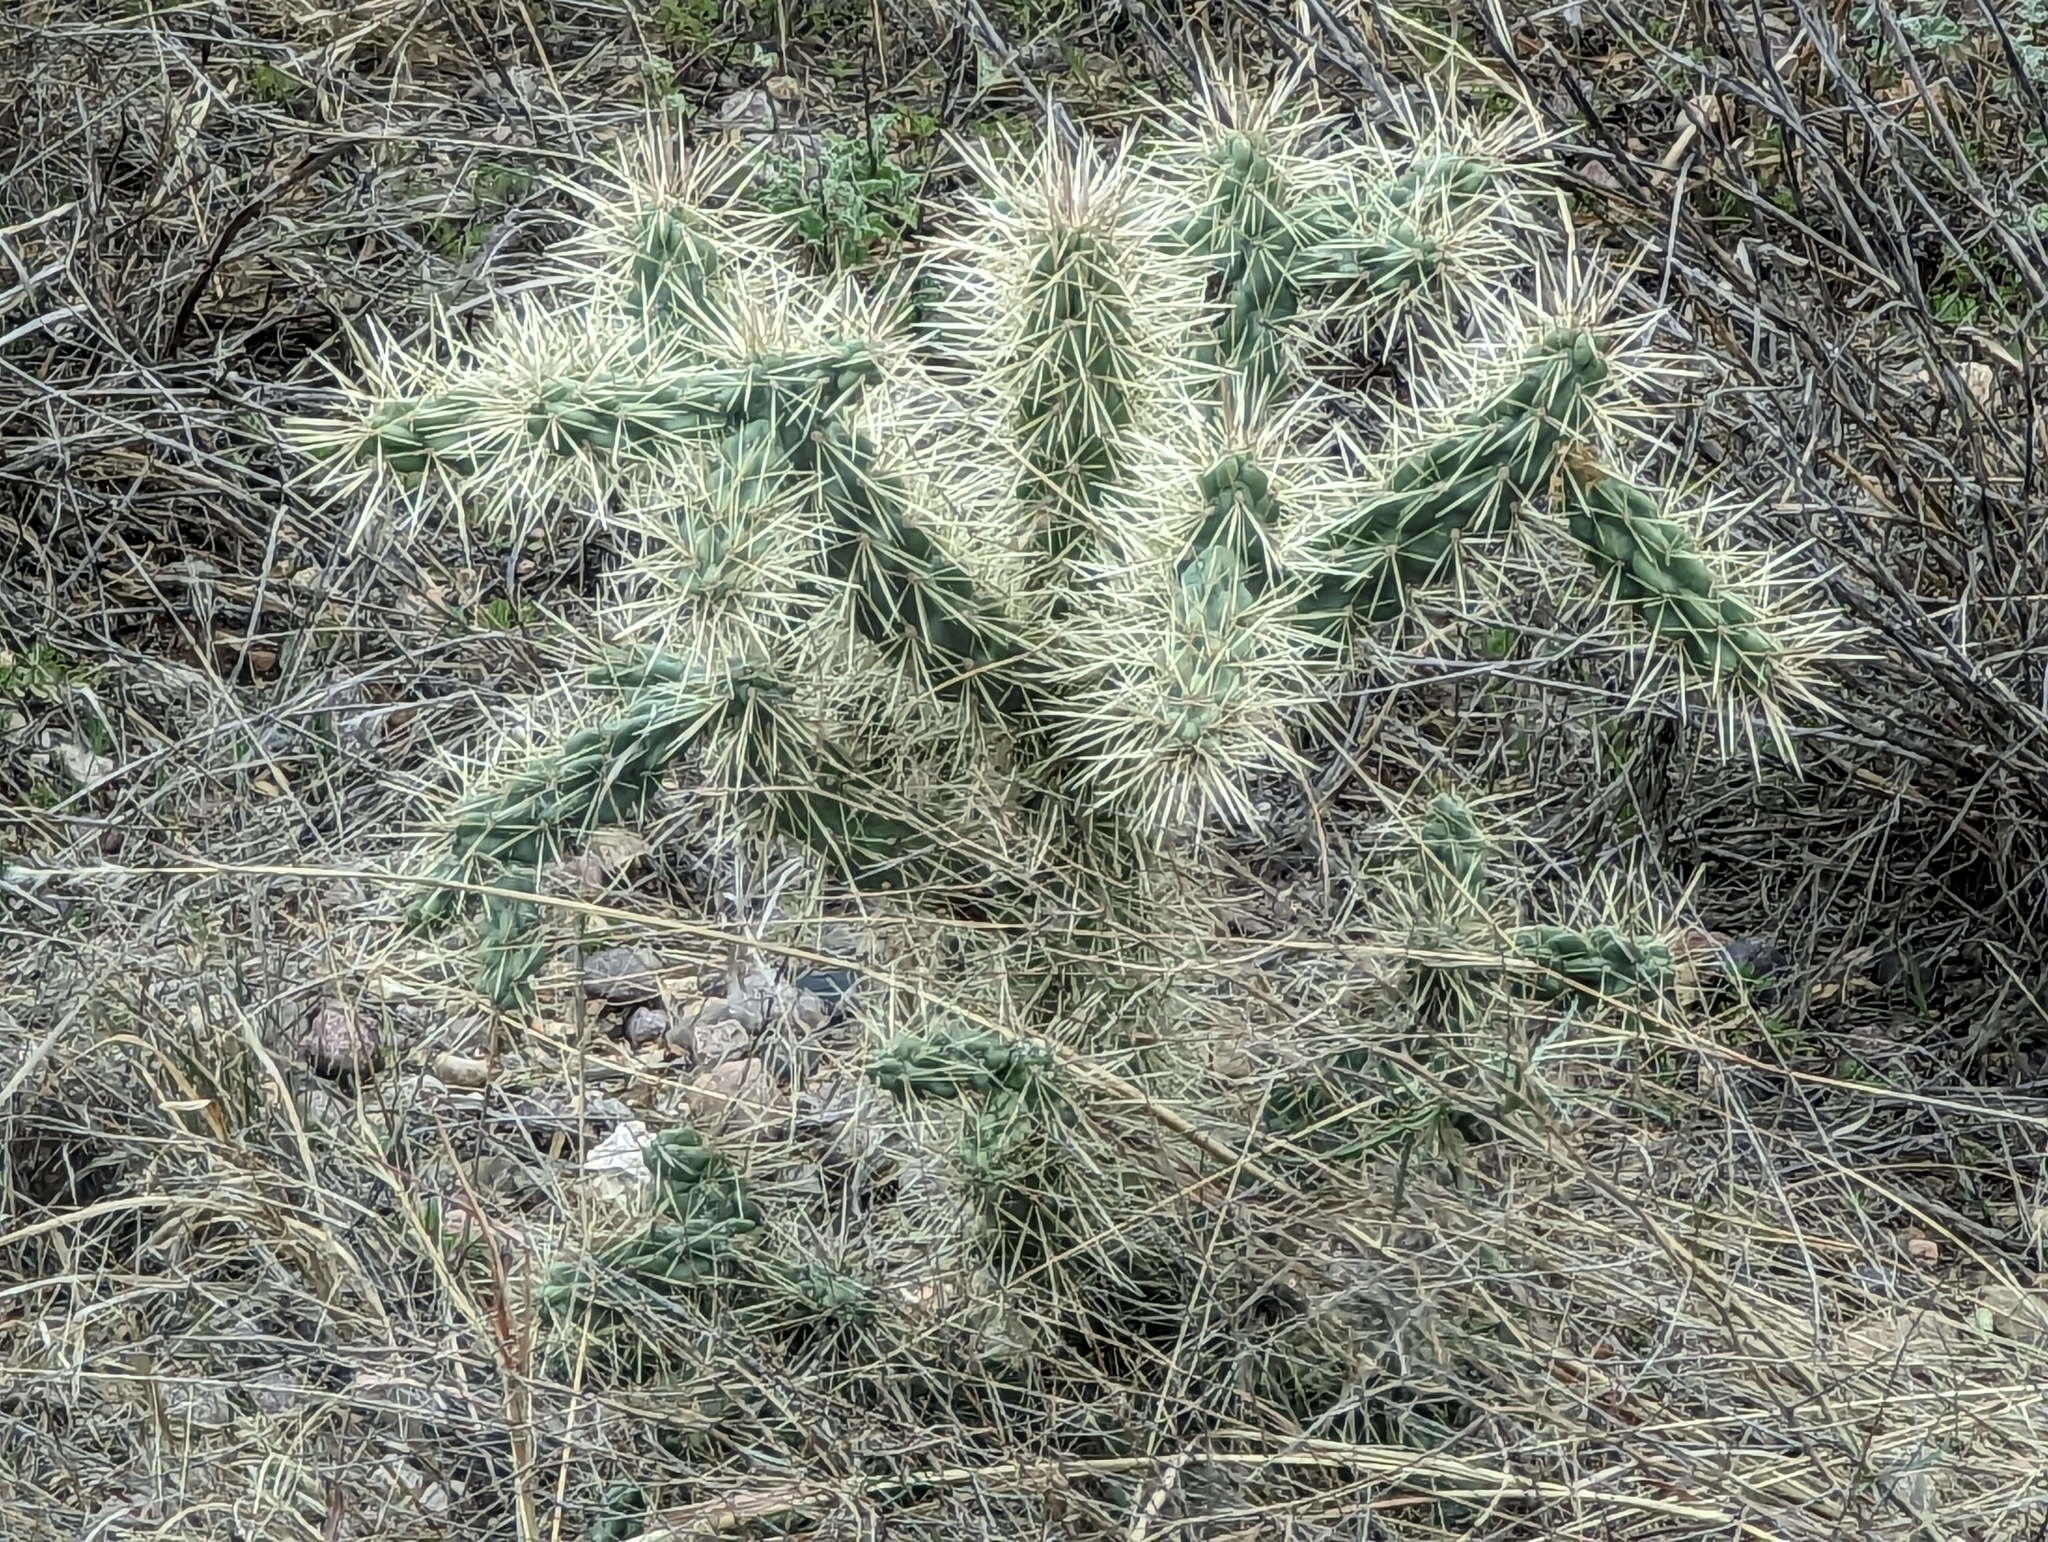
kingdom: Plantae
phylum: Tracheophyta
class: Magnoliopsida
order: Caryophyllales
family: Cactaceae
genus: Cylindropuntia
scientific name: Cylindropuntia fulgida
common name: Jumping cholla
